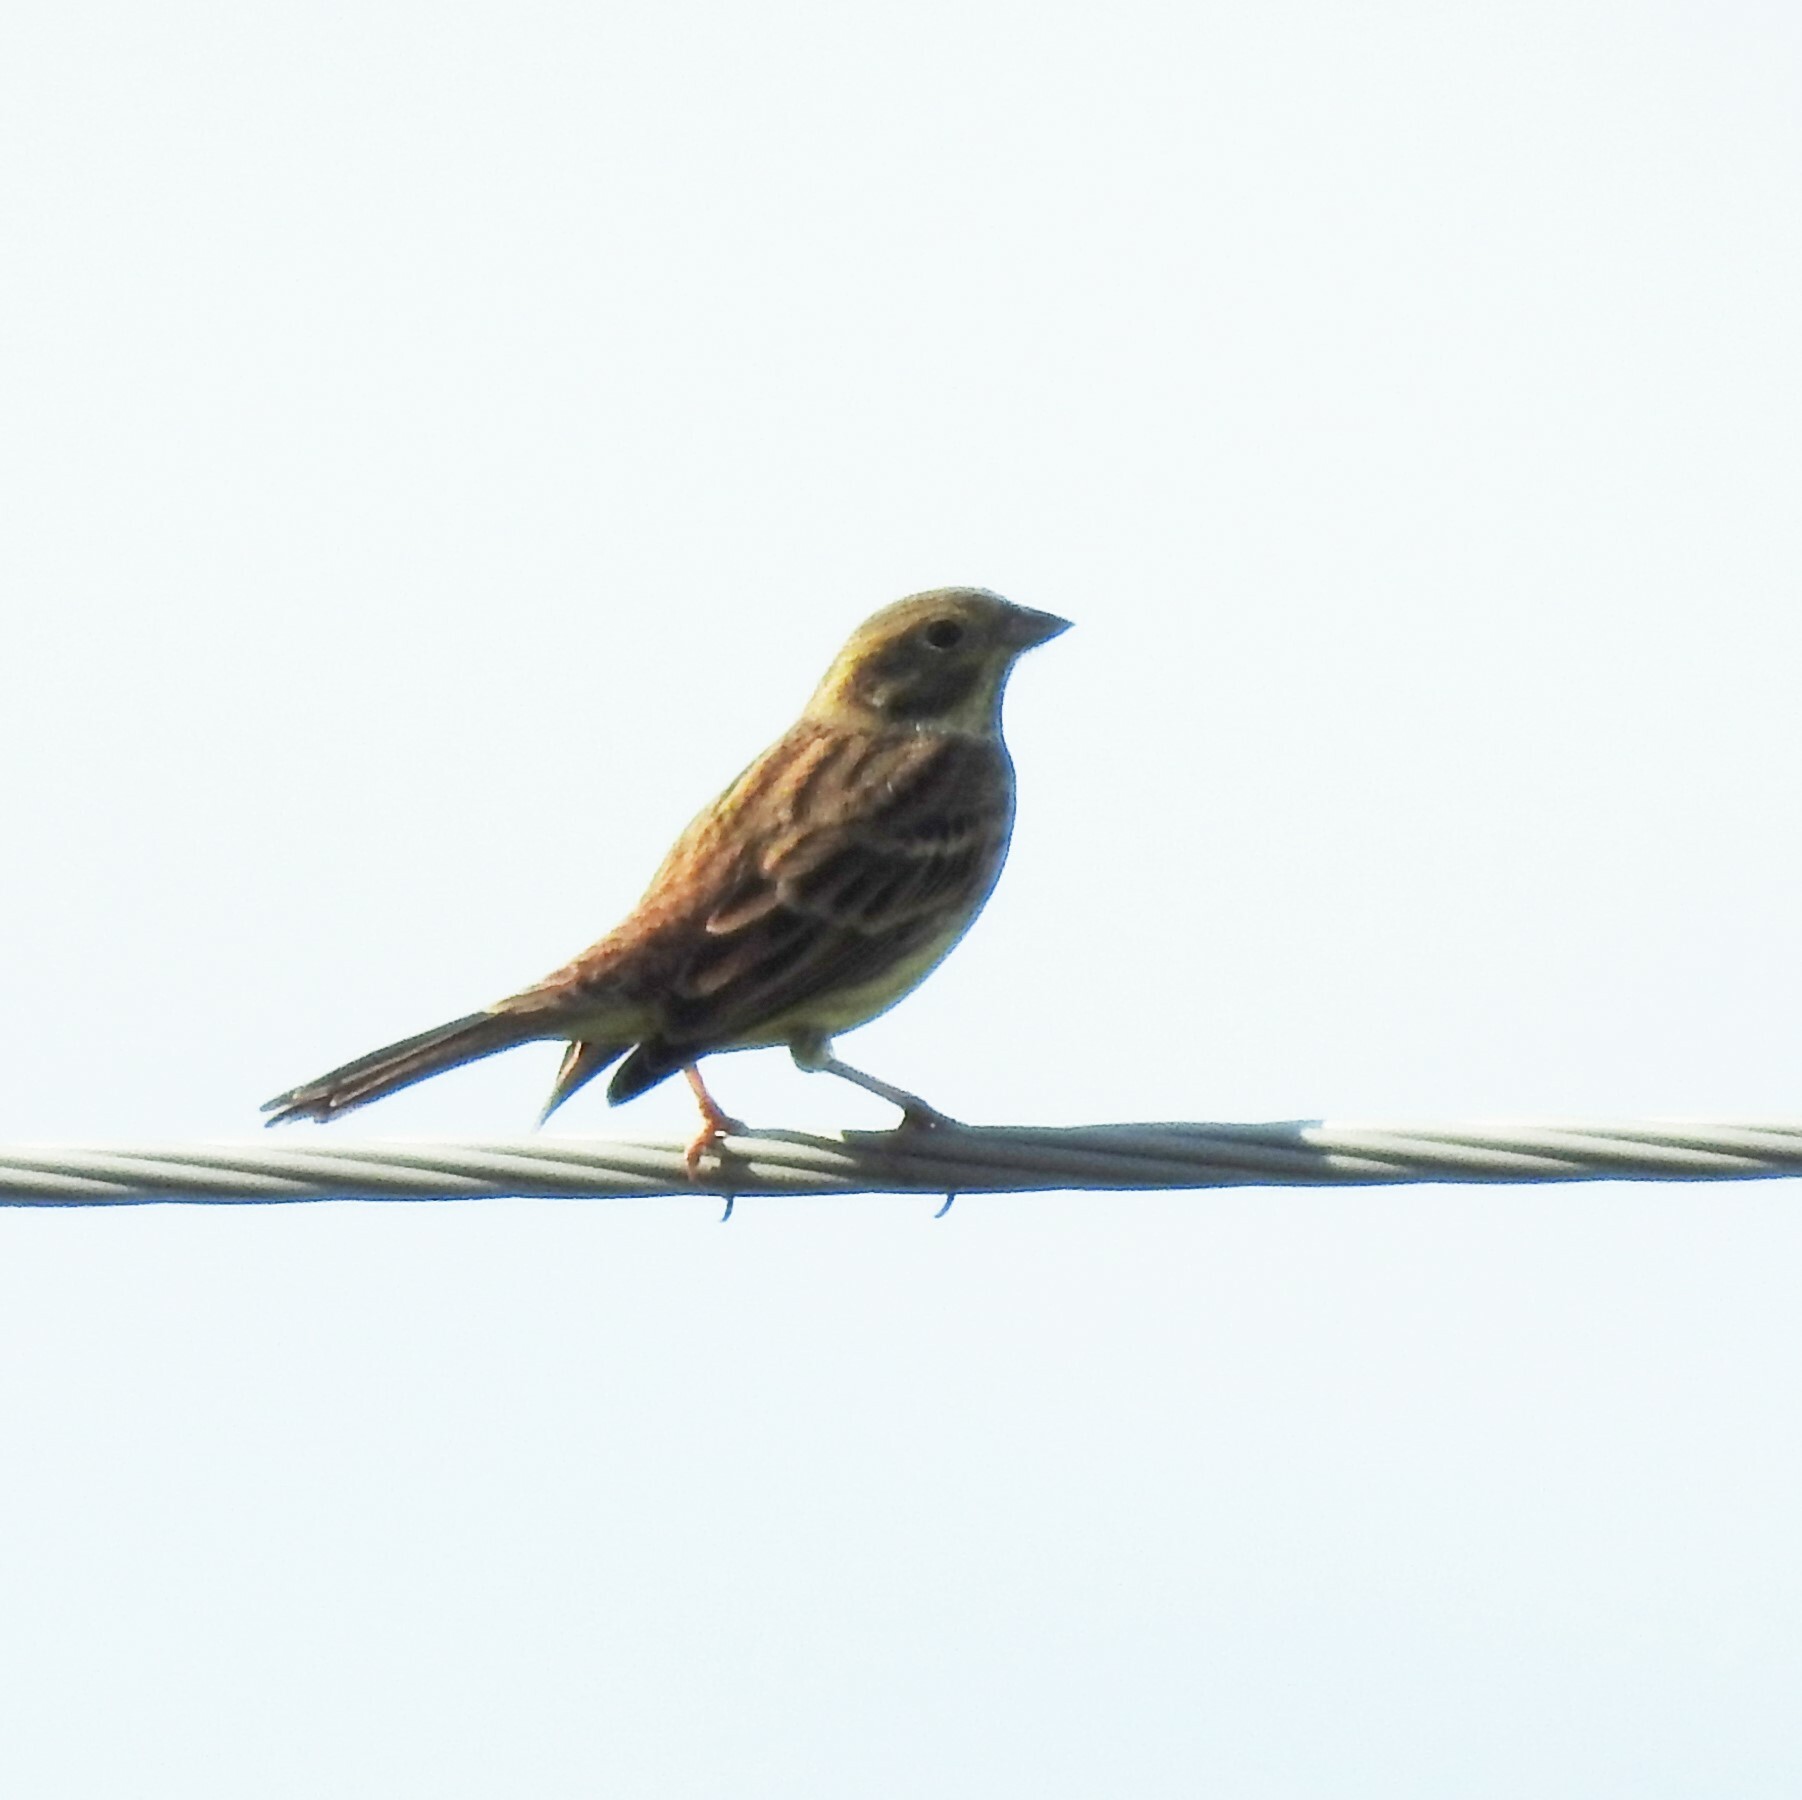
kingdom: Animalia
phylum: Chordata
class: Aves
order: Passeriformes
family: Emberizidae
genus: Emberiza
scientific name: Emberiza citrinella
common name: Yellowhammer
